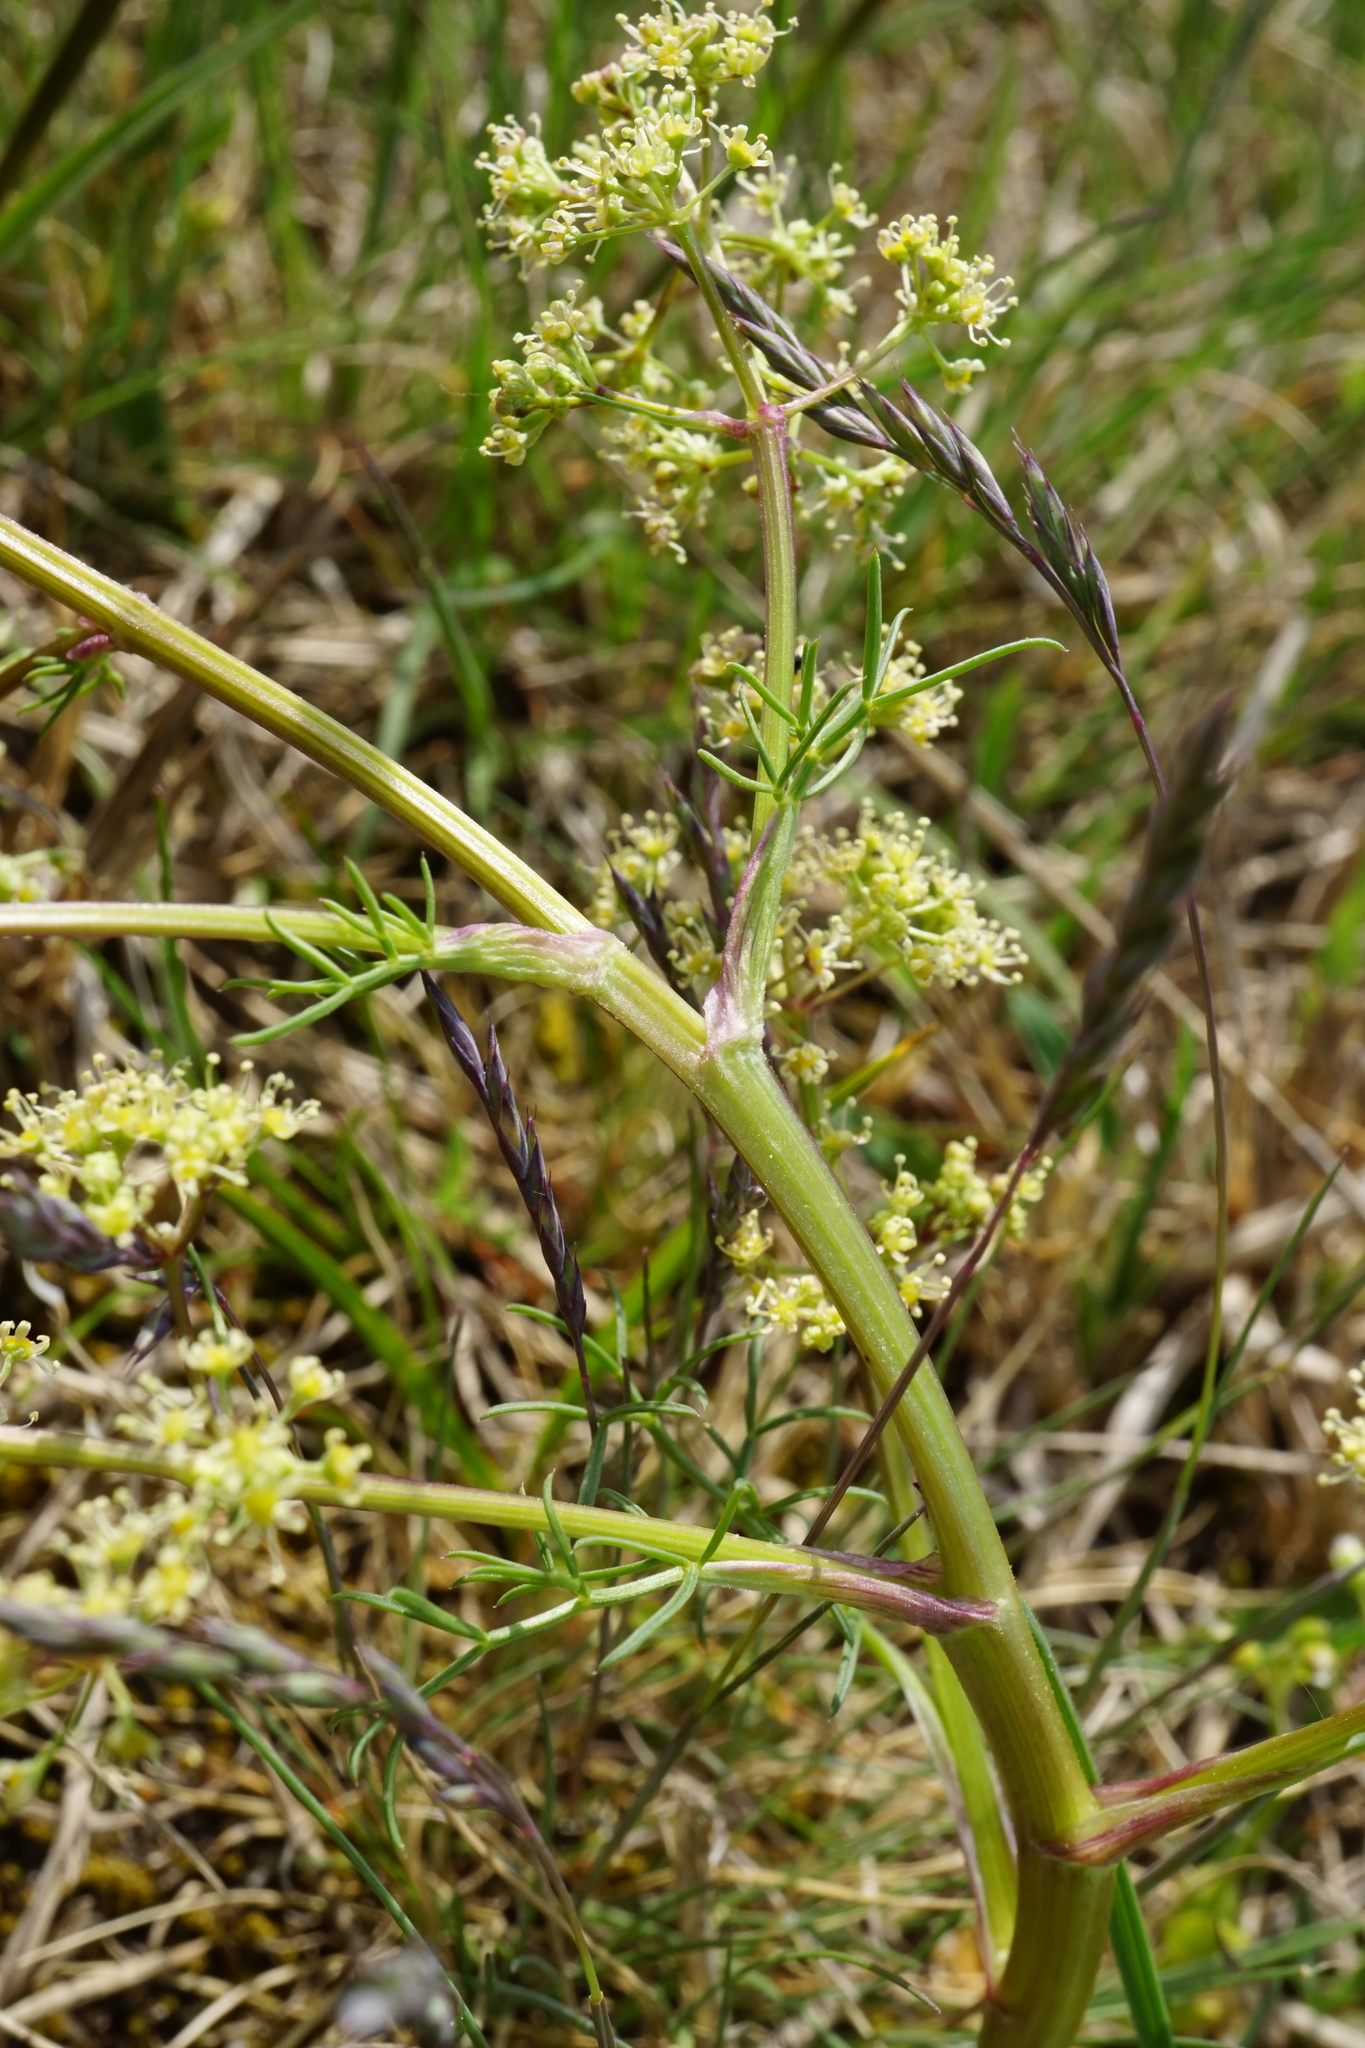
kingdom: Plantae
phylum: Tracheophyta
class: Magnoliopsida
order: Apiales
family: Apiaceae
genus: Trinia
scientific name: Trinia glauca
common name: Honewort
